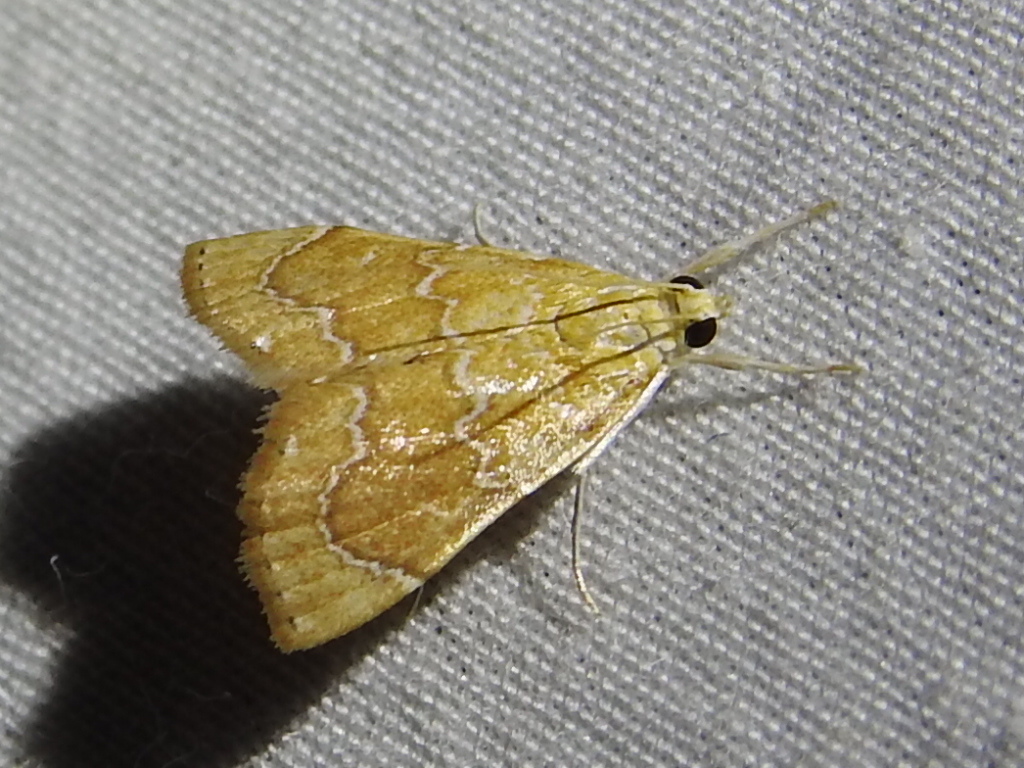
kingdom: Animalia
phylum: Arthropoda
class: Insecta
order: Lepidoptera
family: Crambidae
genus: Glaphyria
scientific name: Glaphyria sesquistrialis
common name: White-roped glaphyria
